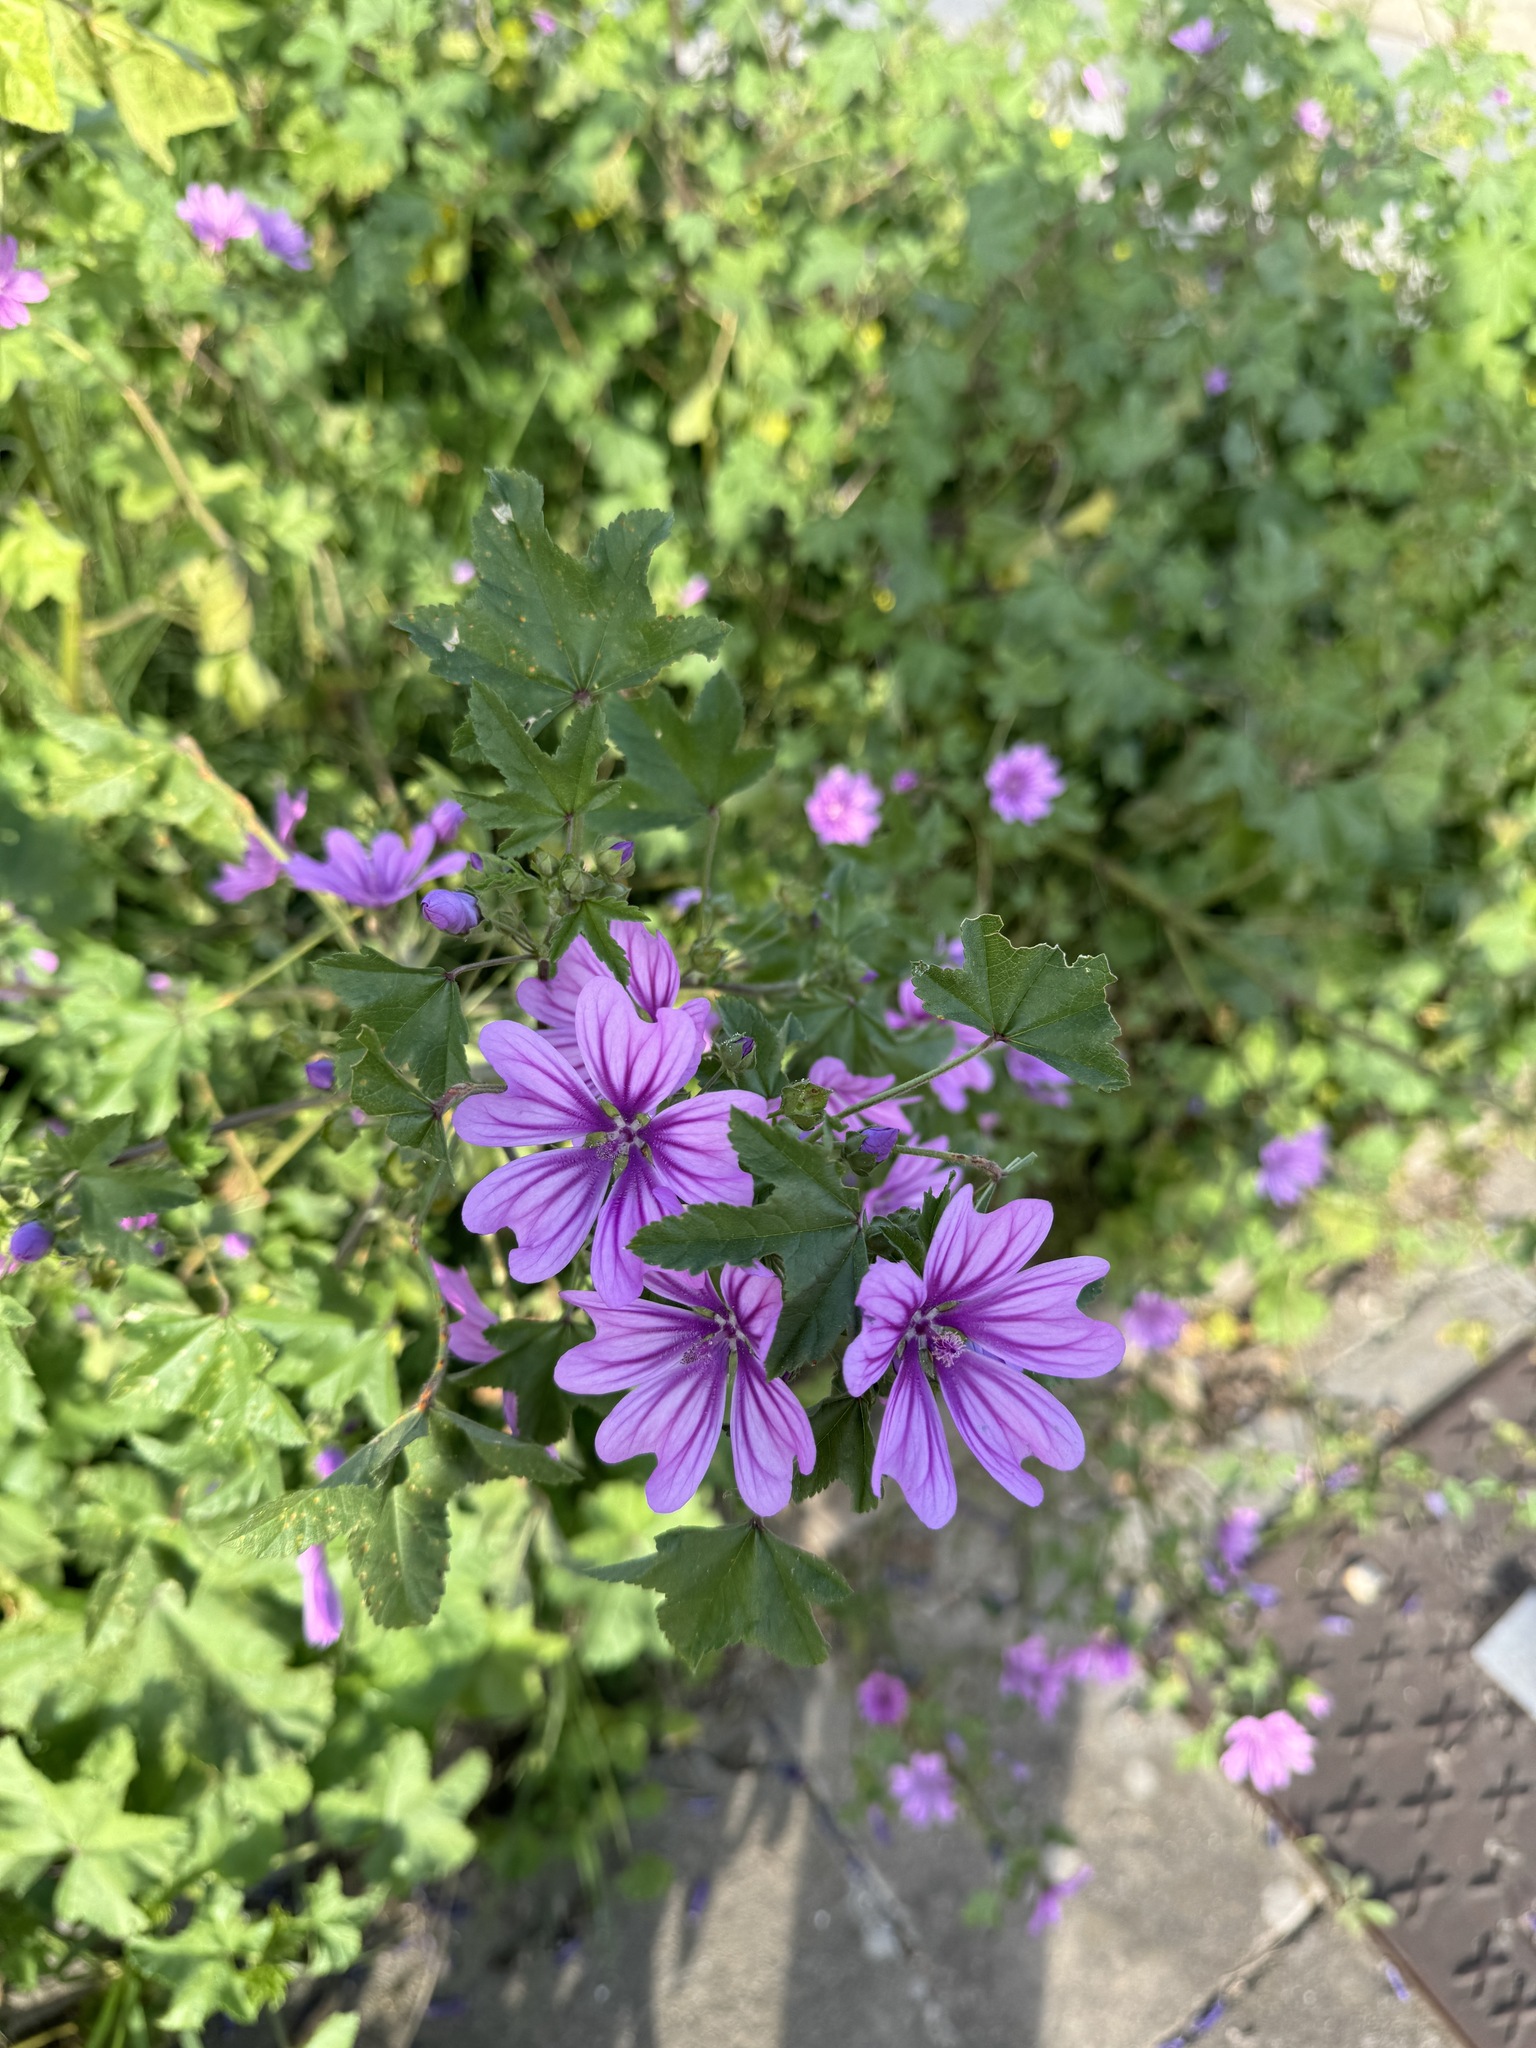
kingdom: Plantae
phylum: Tracheophyta
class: Magnoliopsida
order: Malvales
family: Malvaceae
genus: Malva
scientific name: Malva sylvestris
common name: Common mallow
